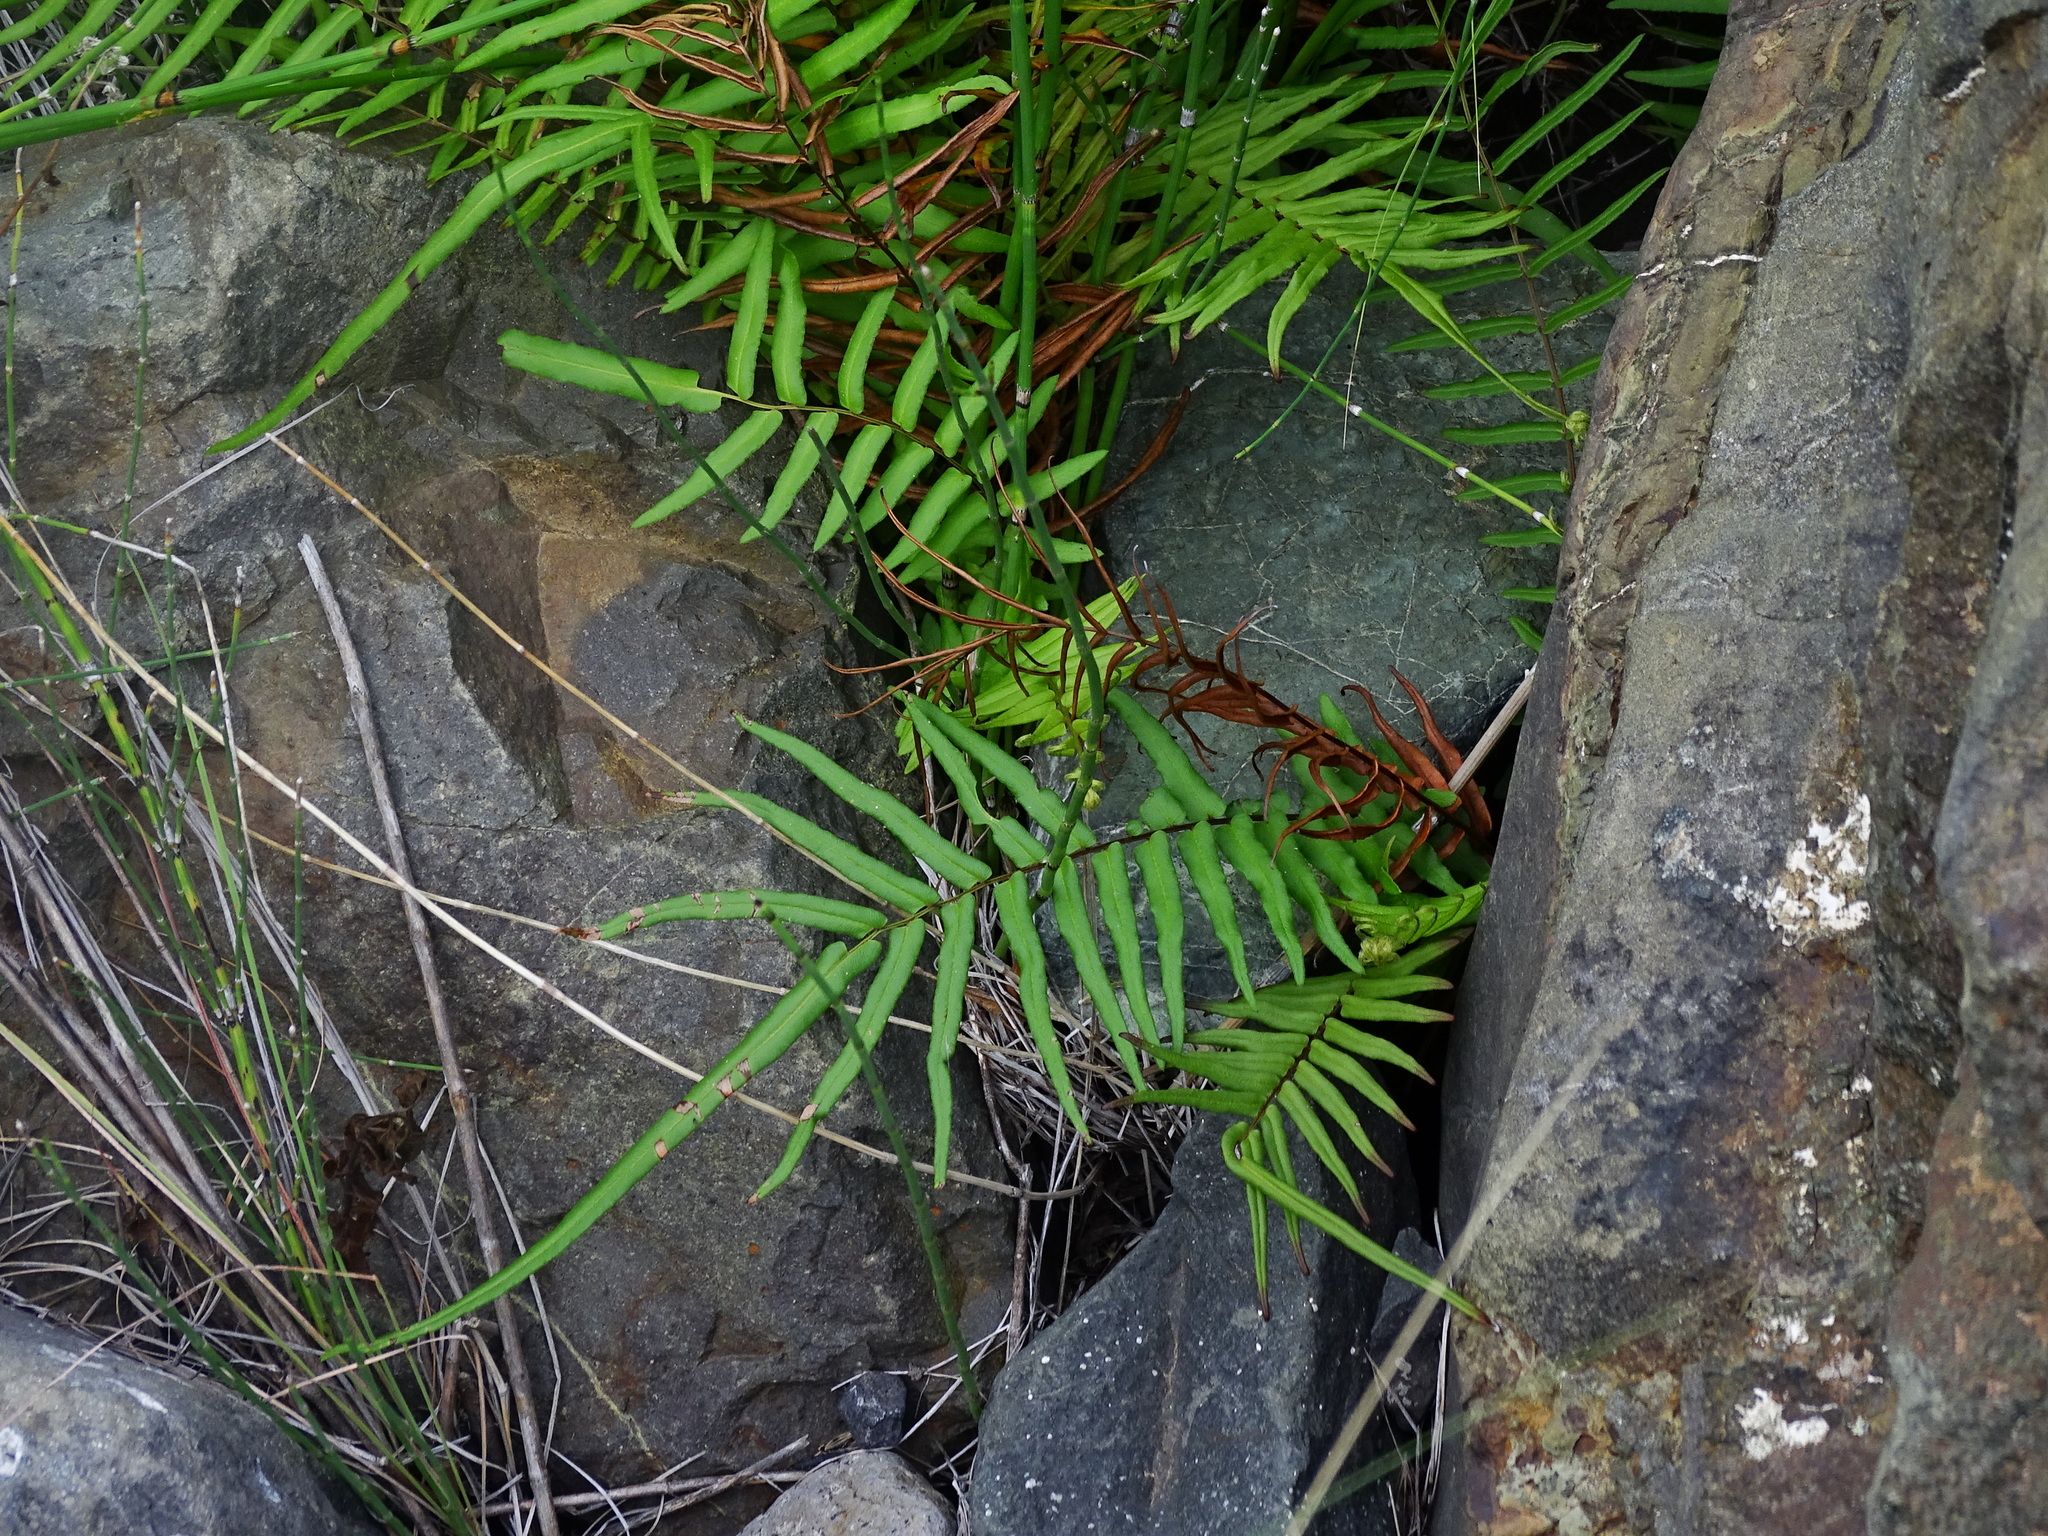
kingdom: Plantae
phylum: Tracheophyta
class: Polypodiopsida
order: Polypodiales
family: Pteridaceae
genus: Pteris
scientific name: Pteris vittata
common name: Ladder brake
